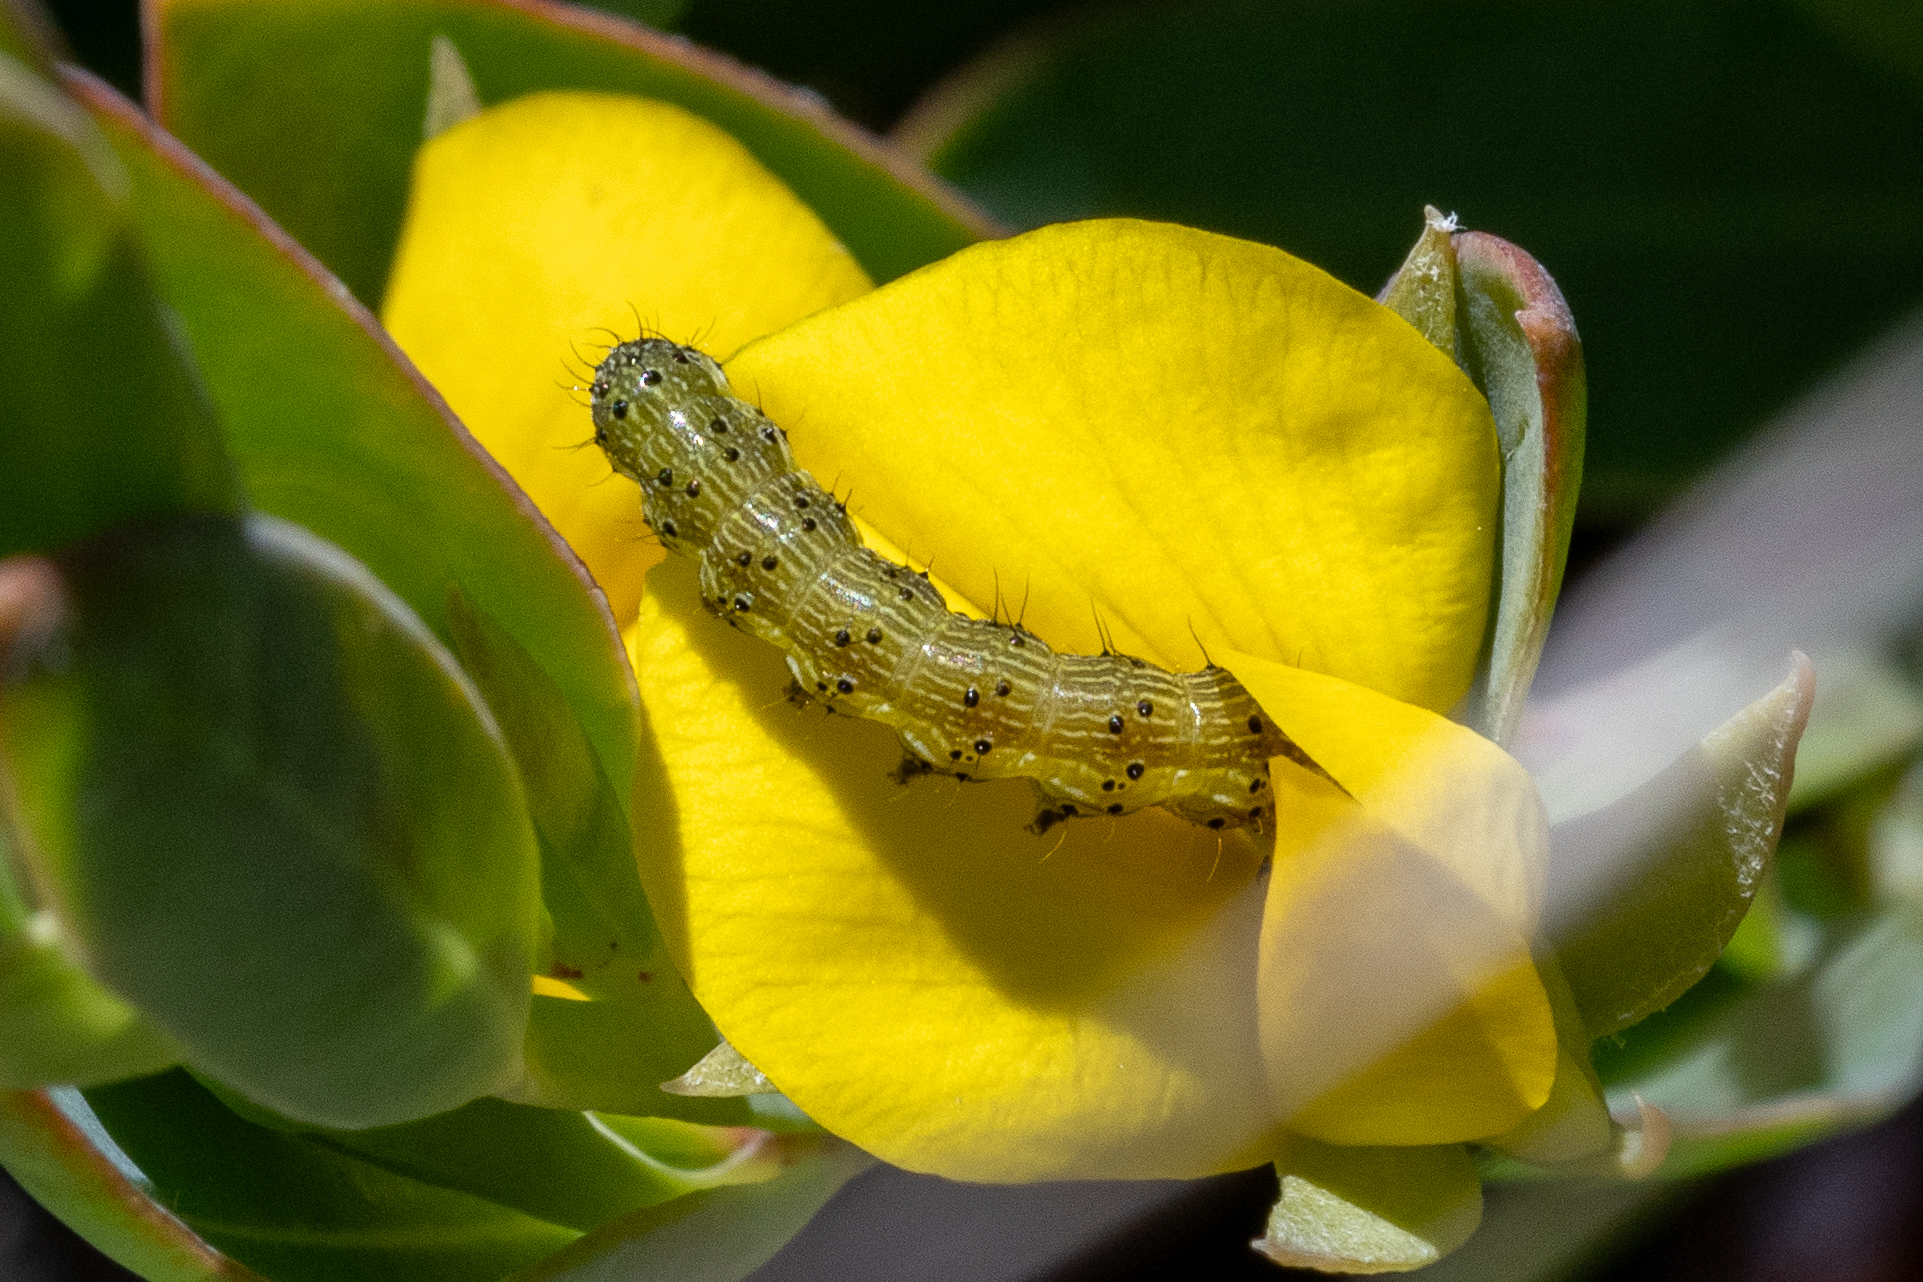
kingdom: Animalia
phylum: Arthropoda
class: Insecta
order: Lepidoptera
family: Noctuidae
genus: Helicoverpa
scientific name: Helicoverpa armigera
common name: Cotton bollworm
